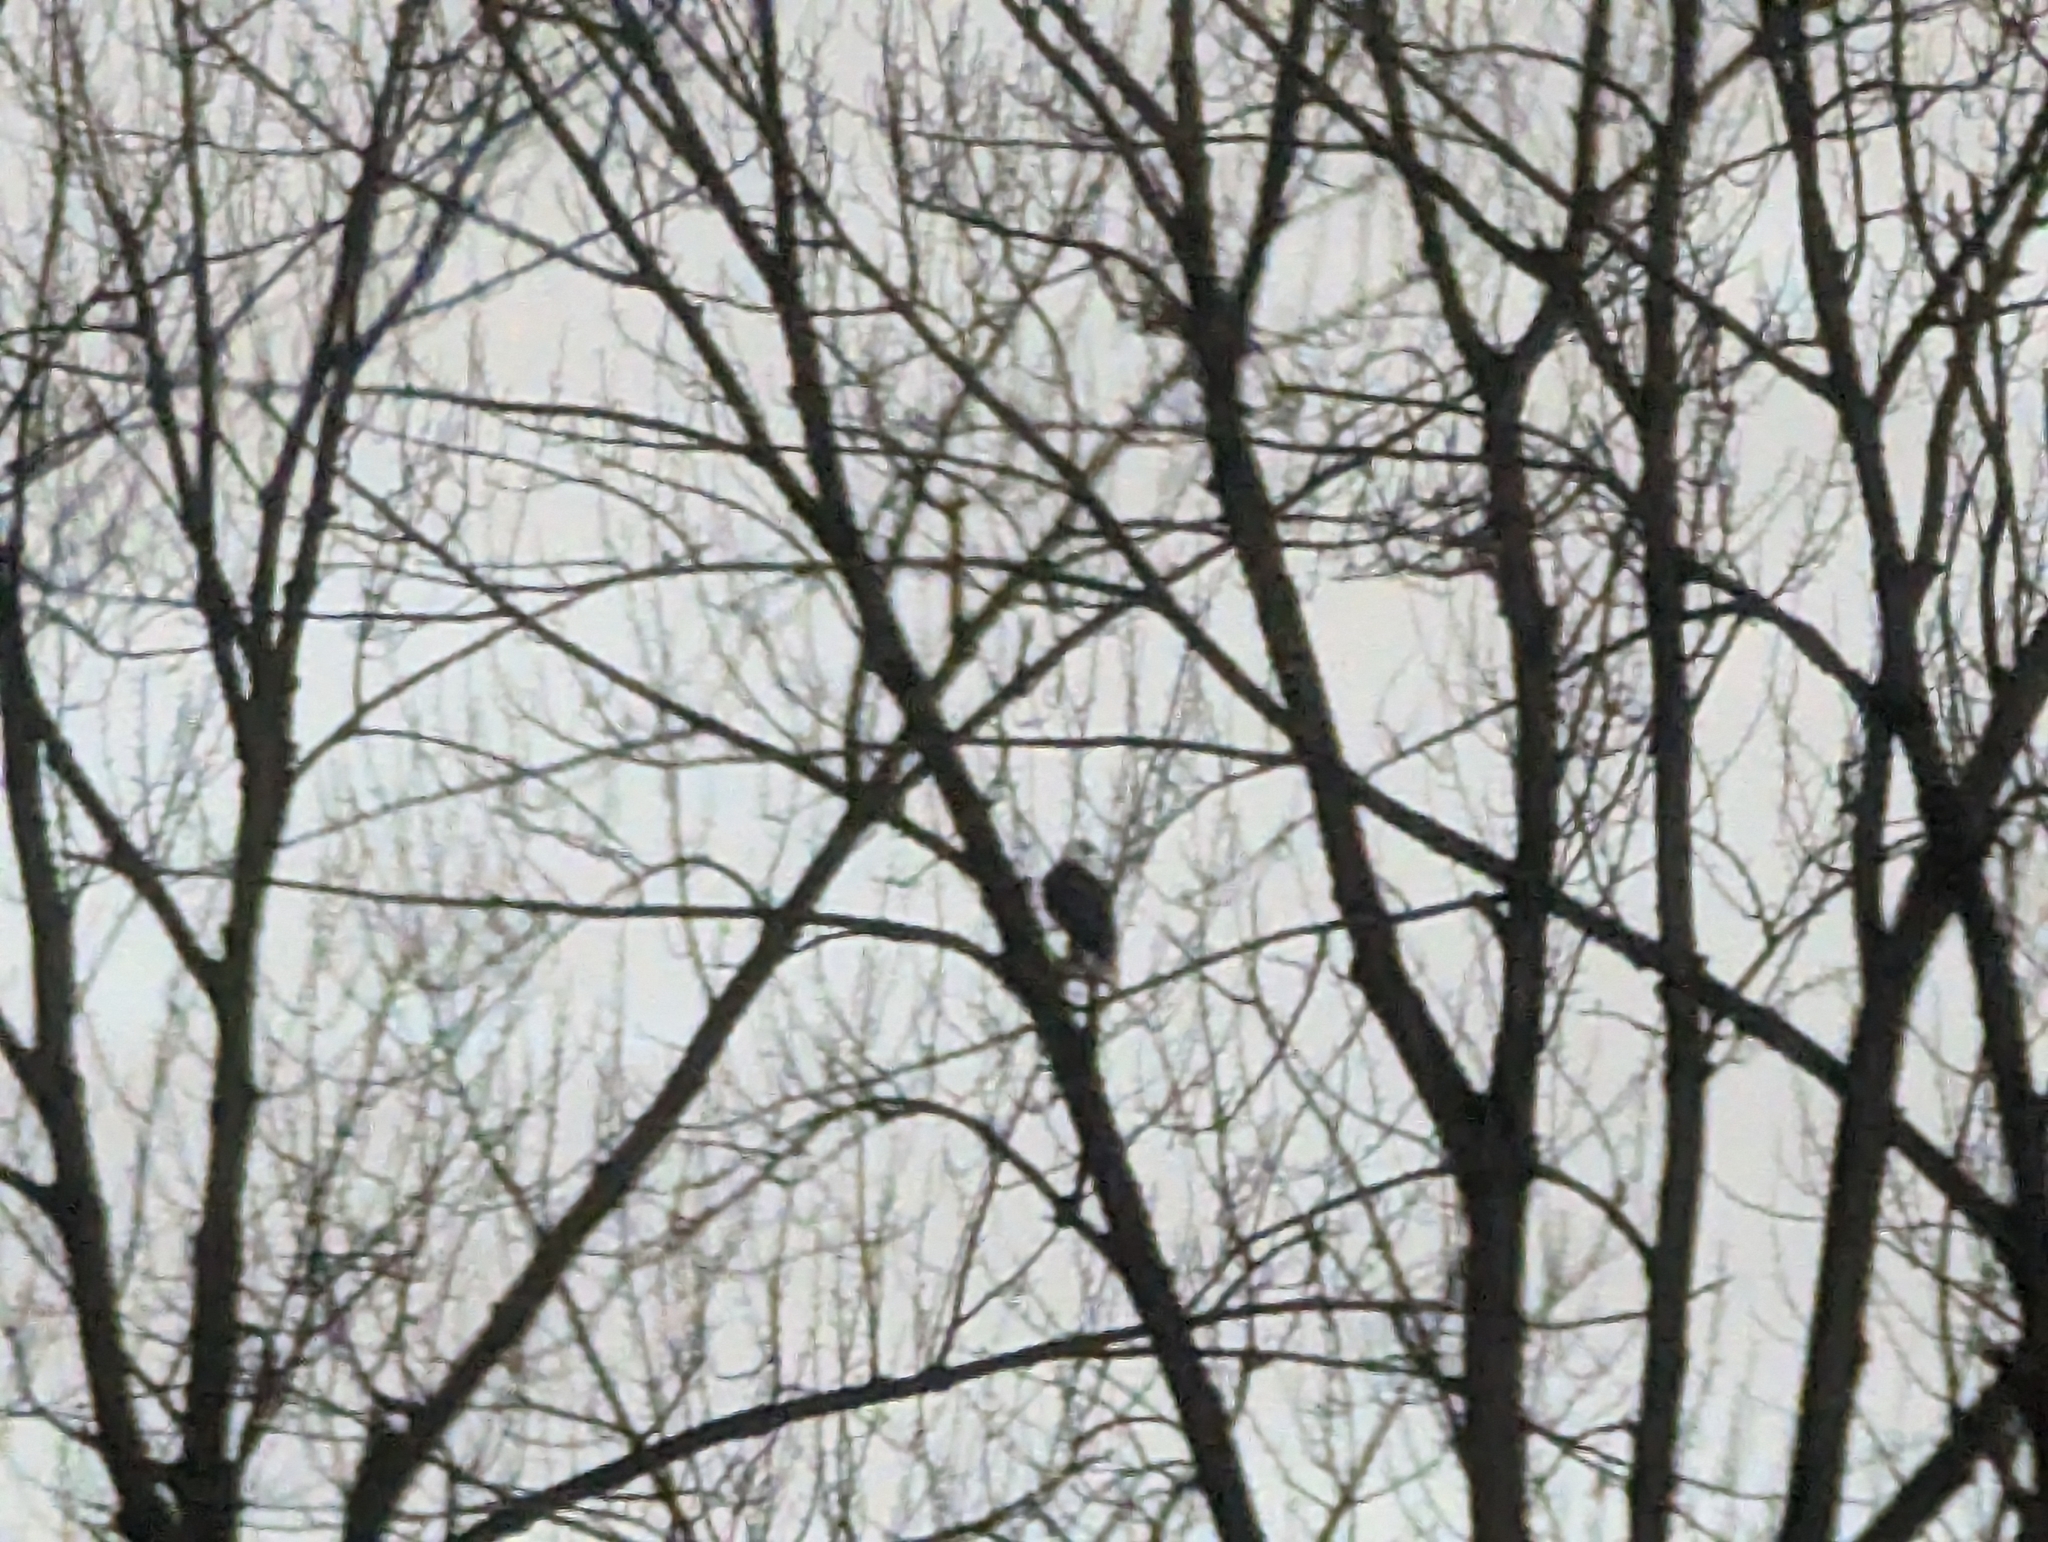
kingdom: Animalia
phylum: Chordata
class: Aves
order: Accipitriformes
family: Accipitridae
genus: Haliaeetus
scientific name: Haliaeetus leucocephalus
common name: Bald eagle
